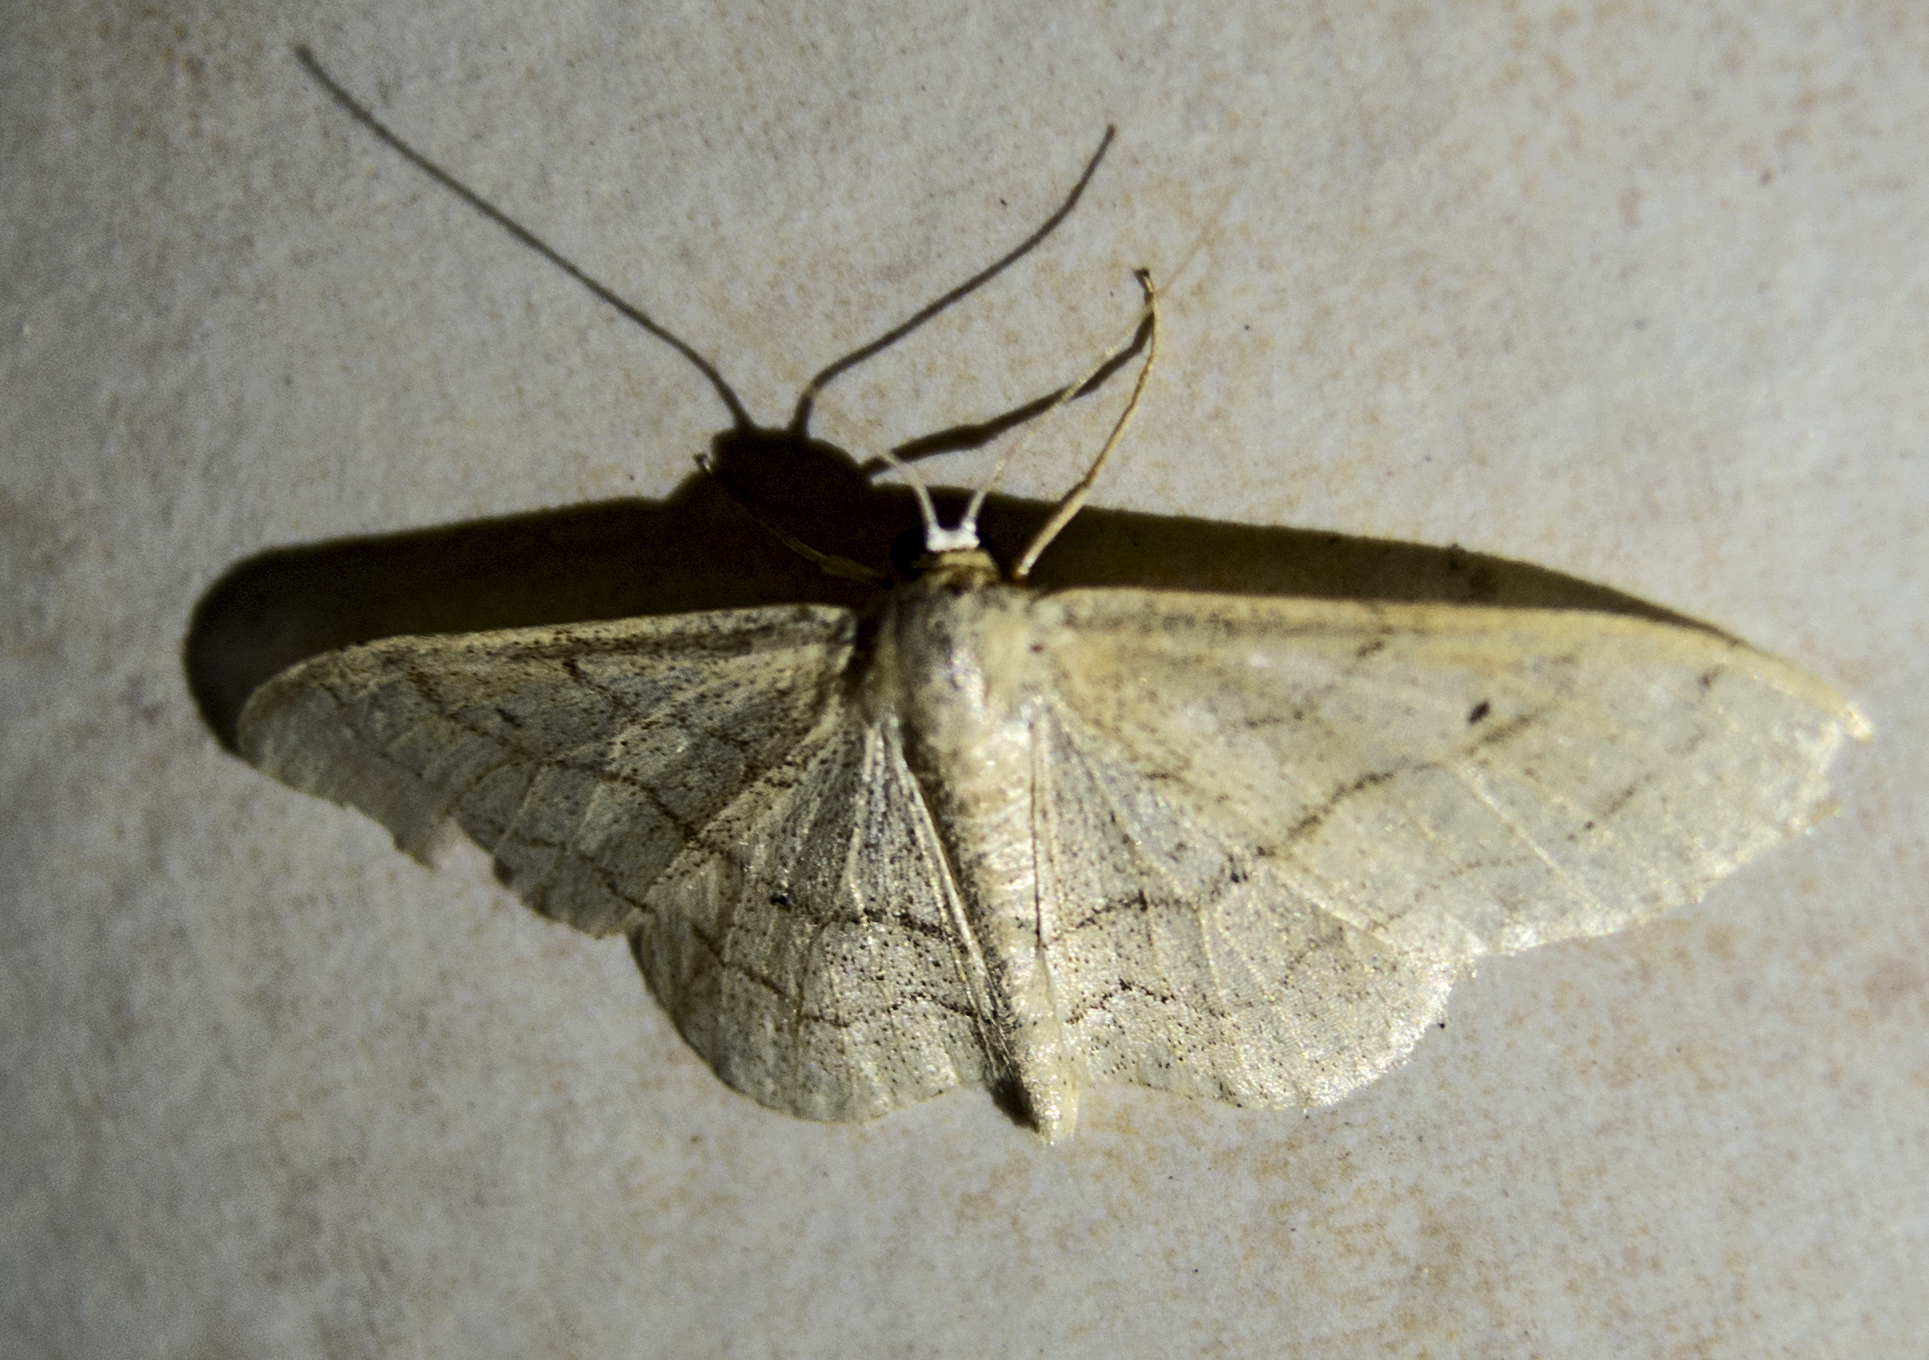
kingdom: Animalia
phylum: Arthropoda
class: Insecta
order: Lepidoptera
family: Geometridae
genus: Idaea
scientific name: Idaea aversata
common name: Riband wave
